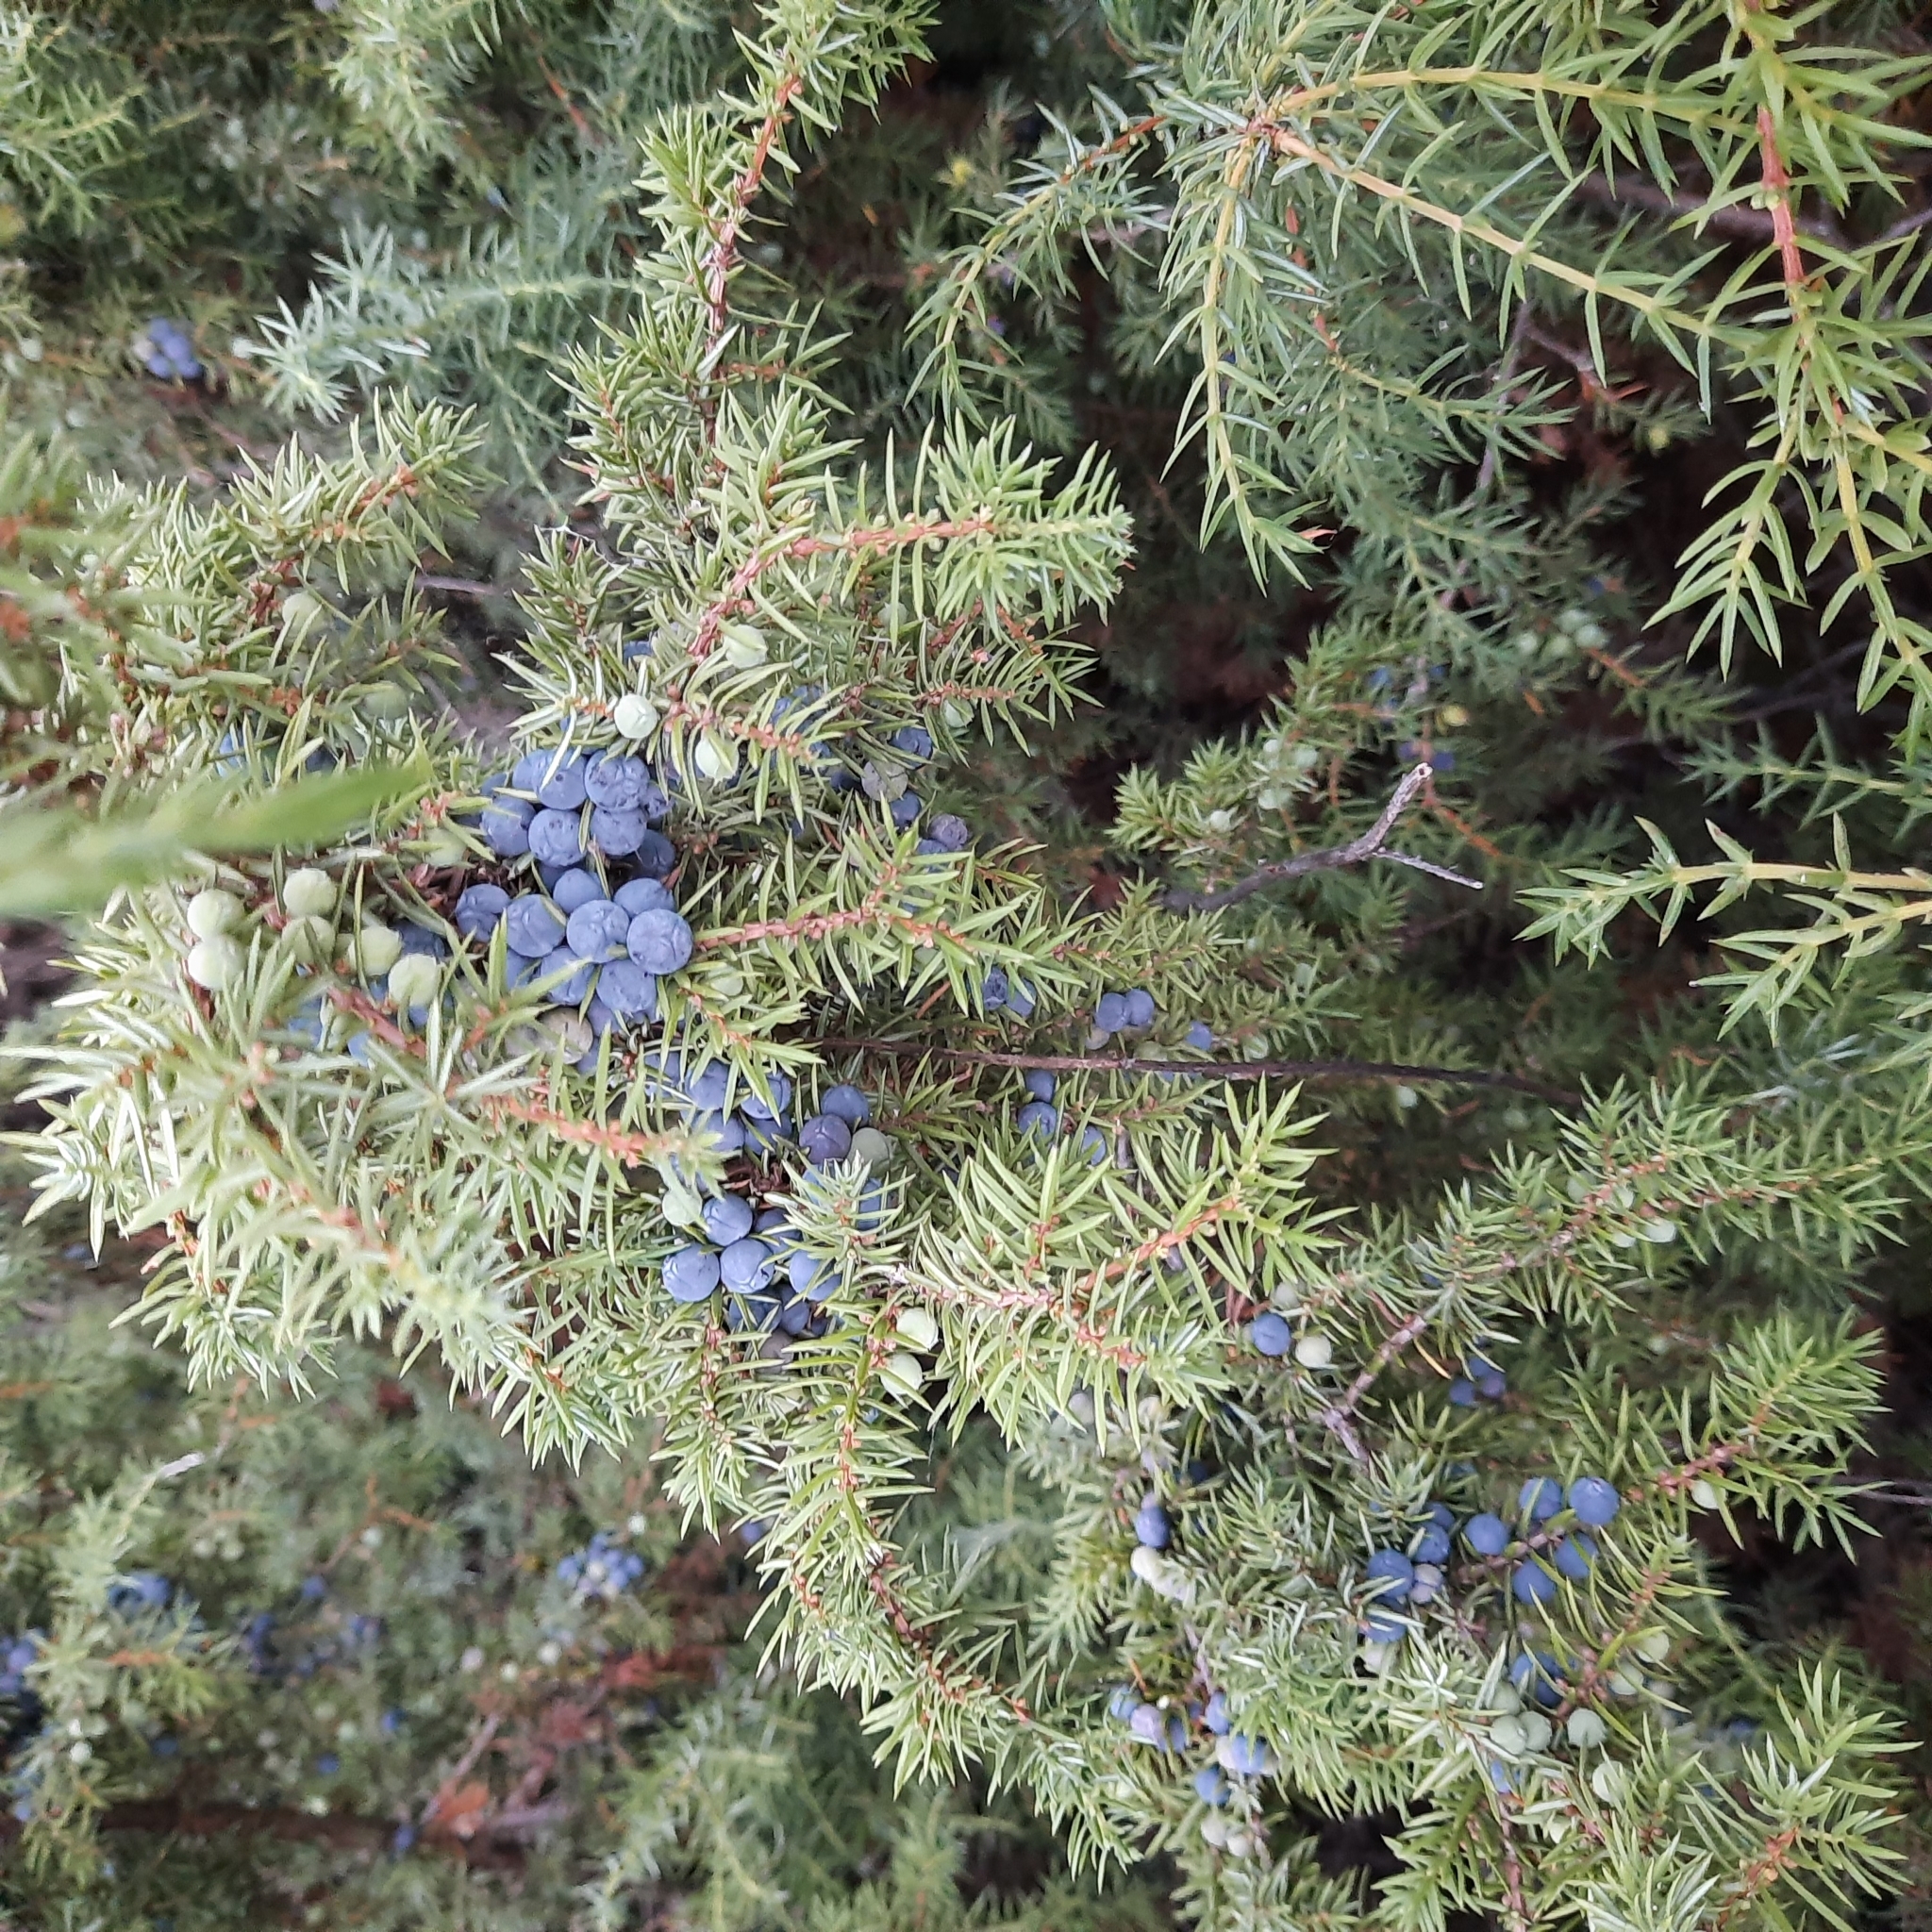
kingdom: Plantae
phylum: Tracheophyta
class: Pinopsida
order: Pinales
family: Cupressaceae
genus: Juniperus
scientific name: Juniperus communis
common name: Common juniper
